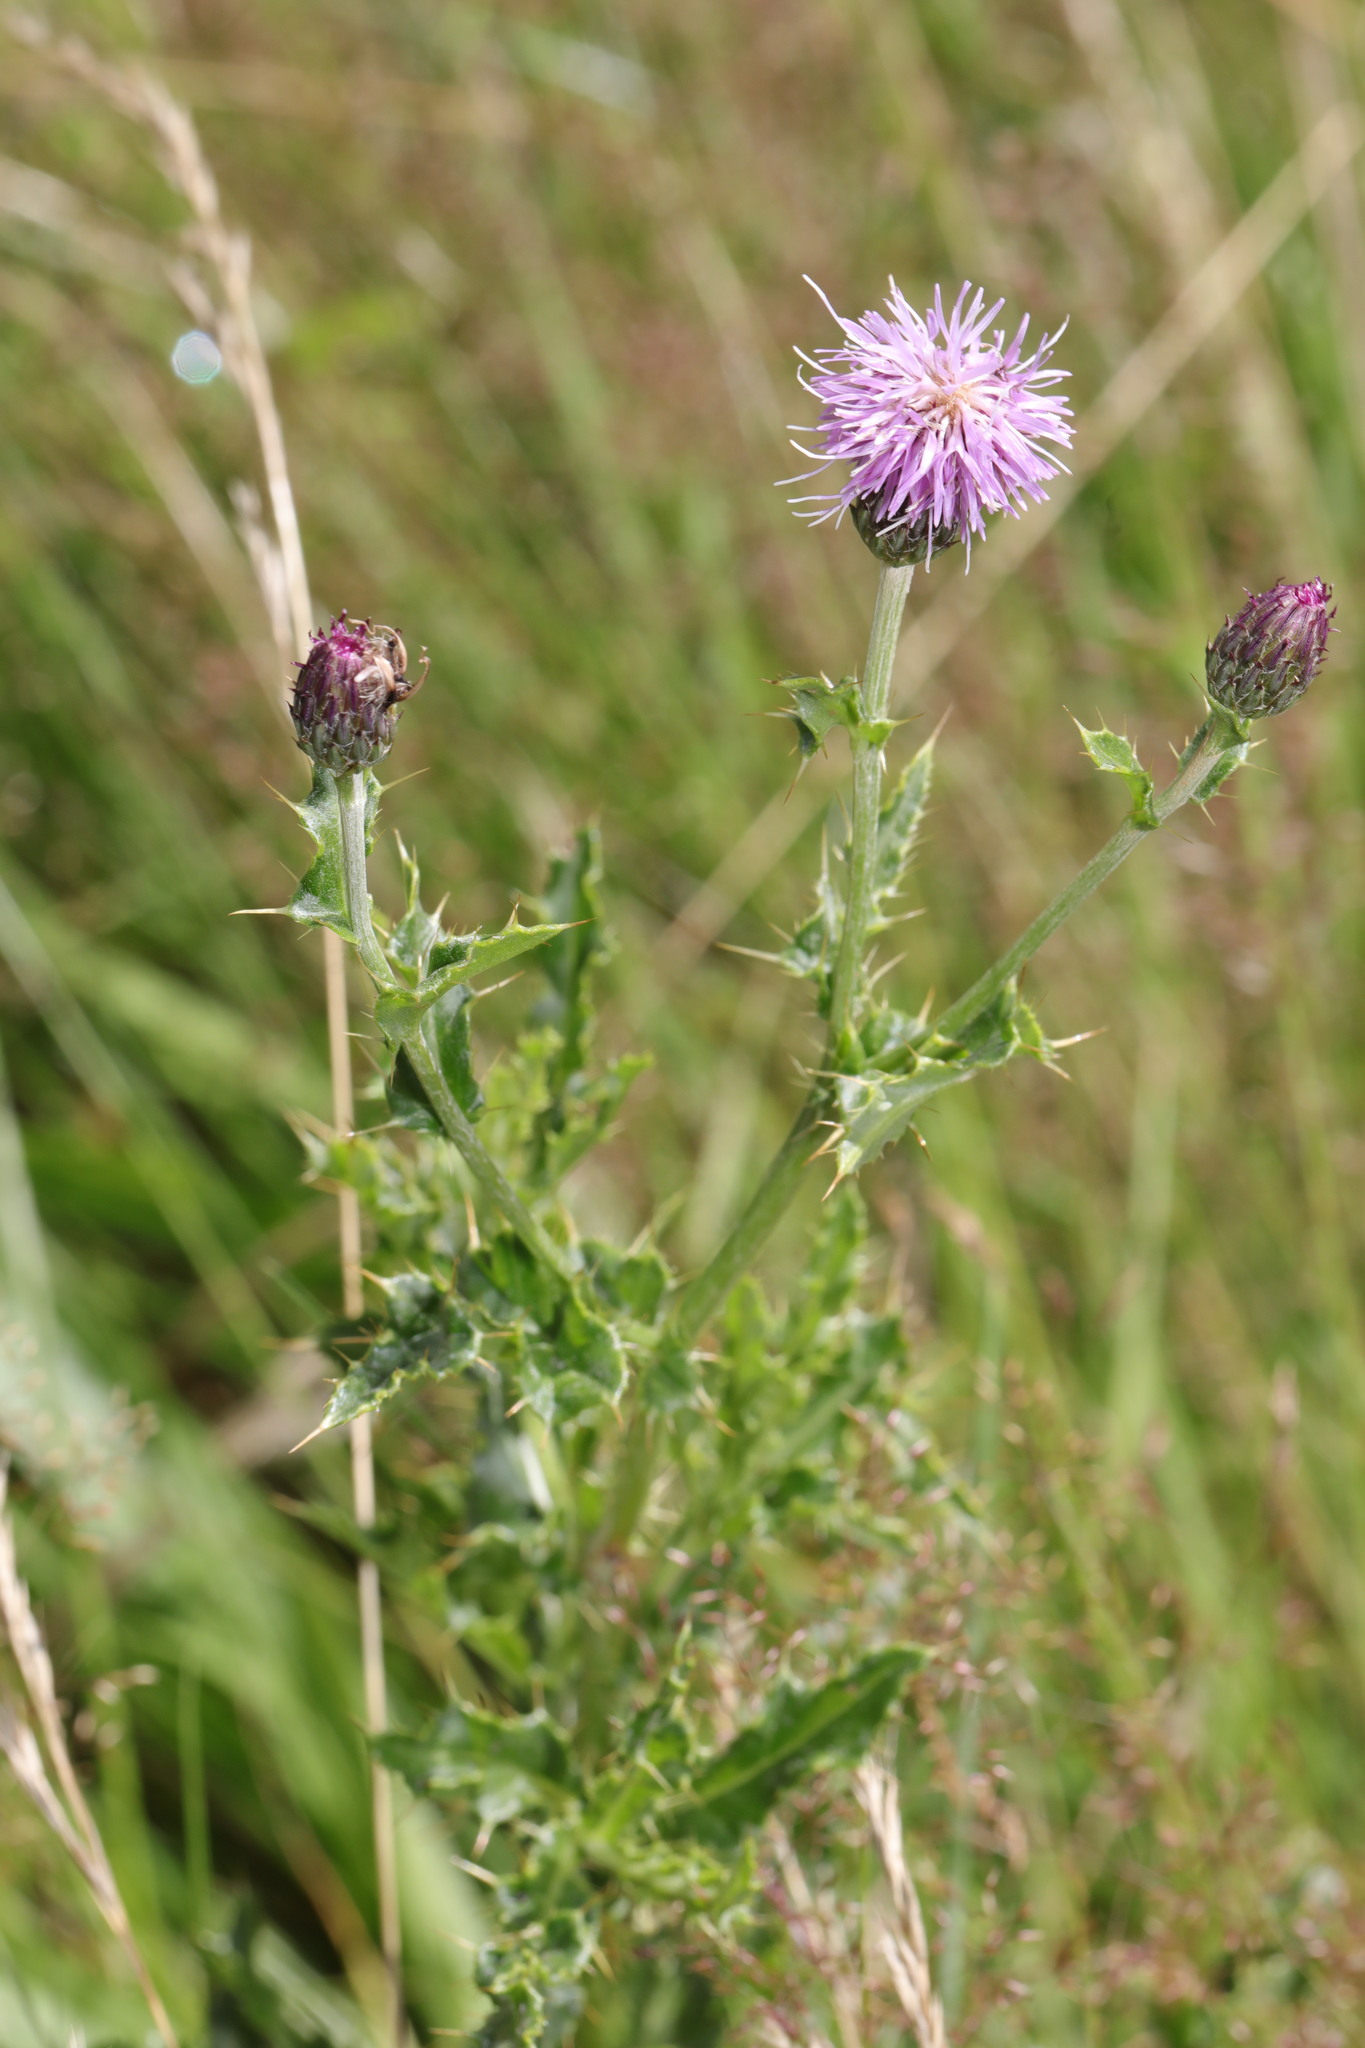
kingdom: Plantae
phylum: Tracheophyta
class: Magnoliopsida
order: Asterales
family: Asteraceae
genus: Cirsium
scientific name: Cirsium arvense
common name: Creeping thistle
